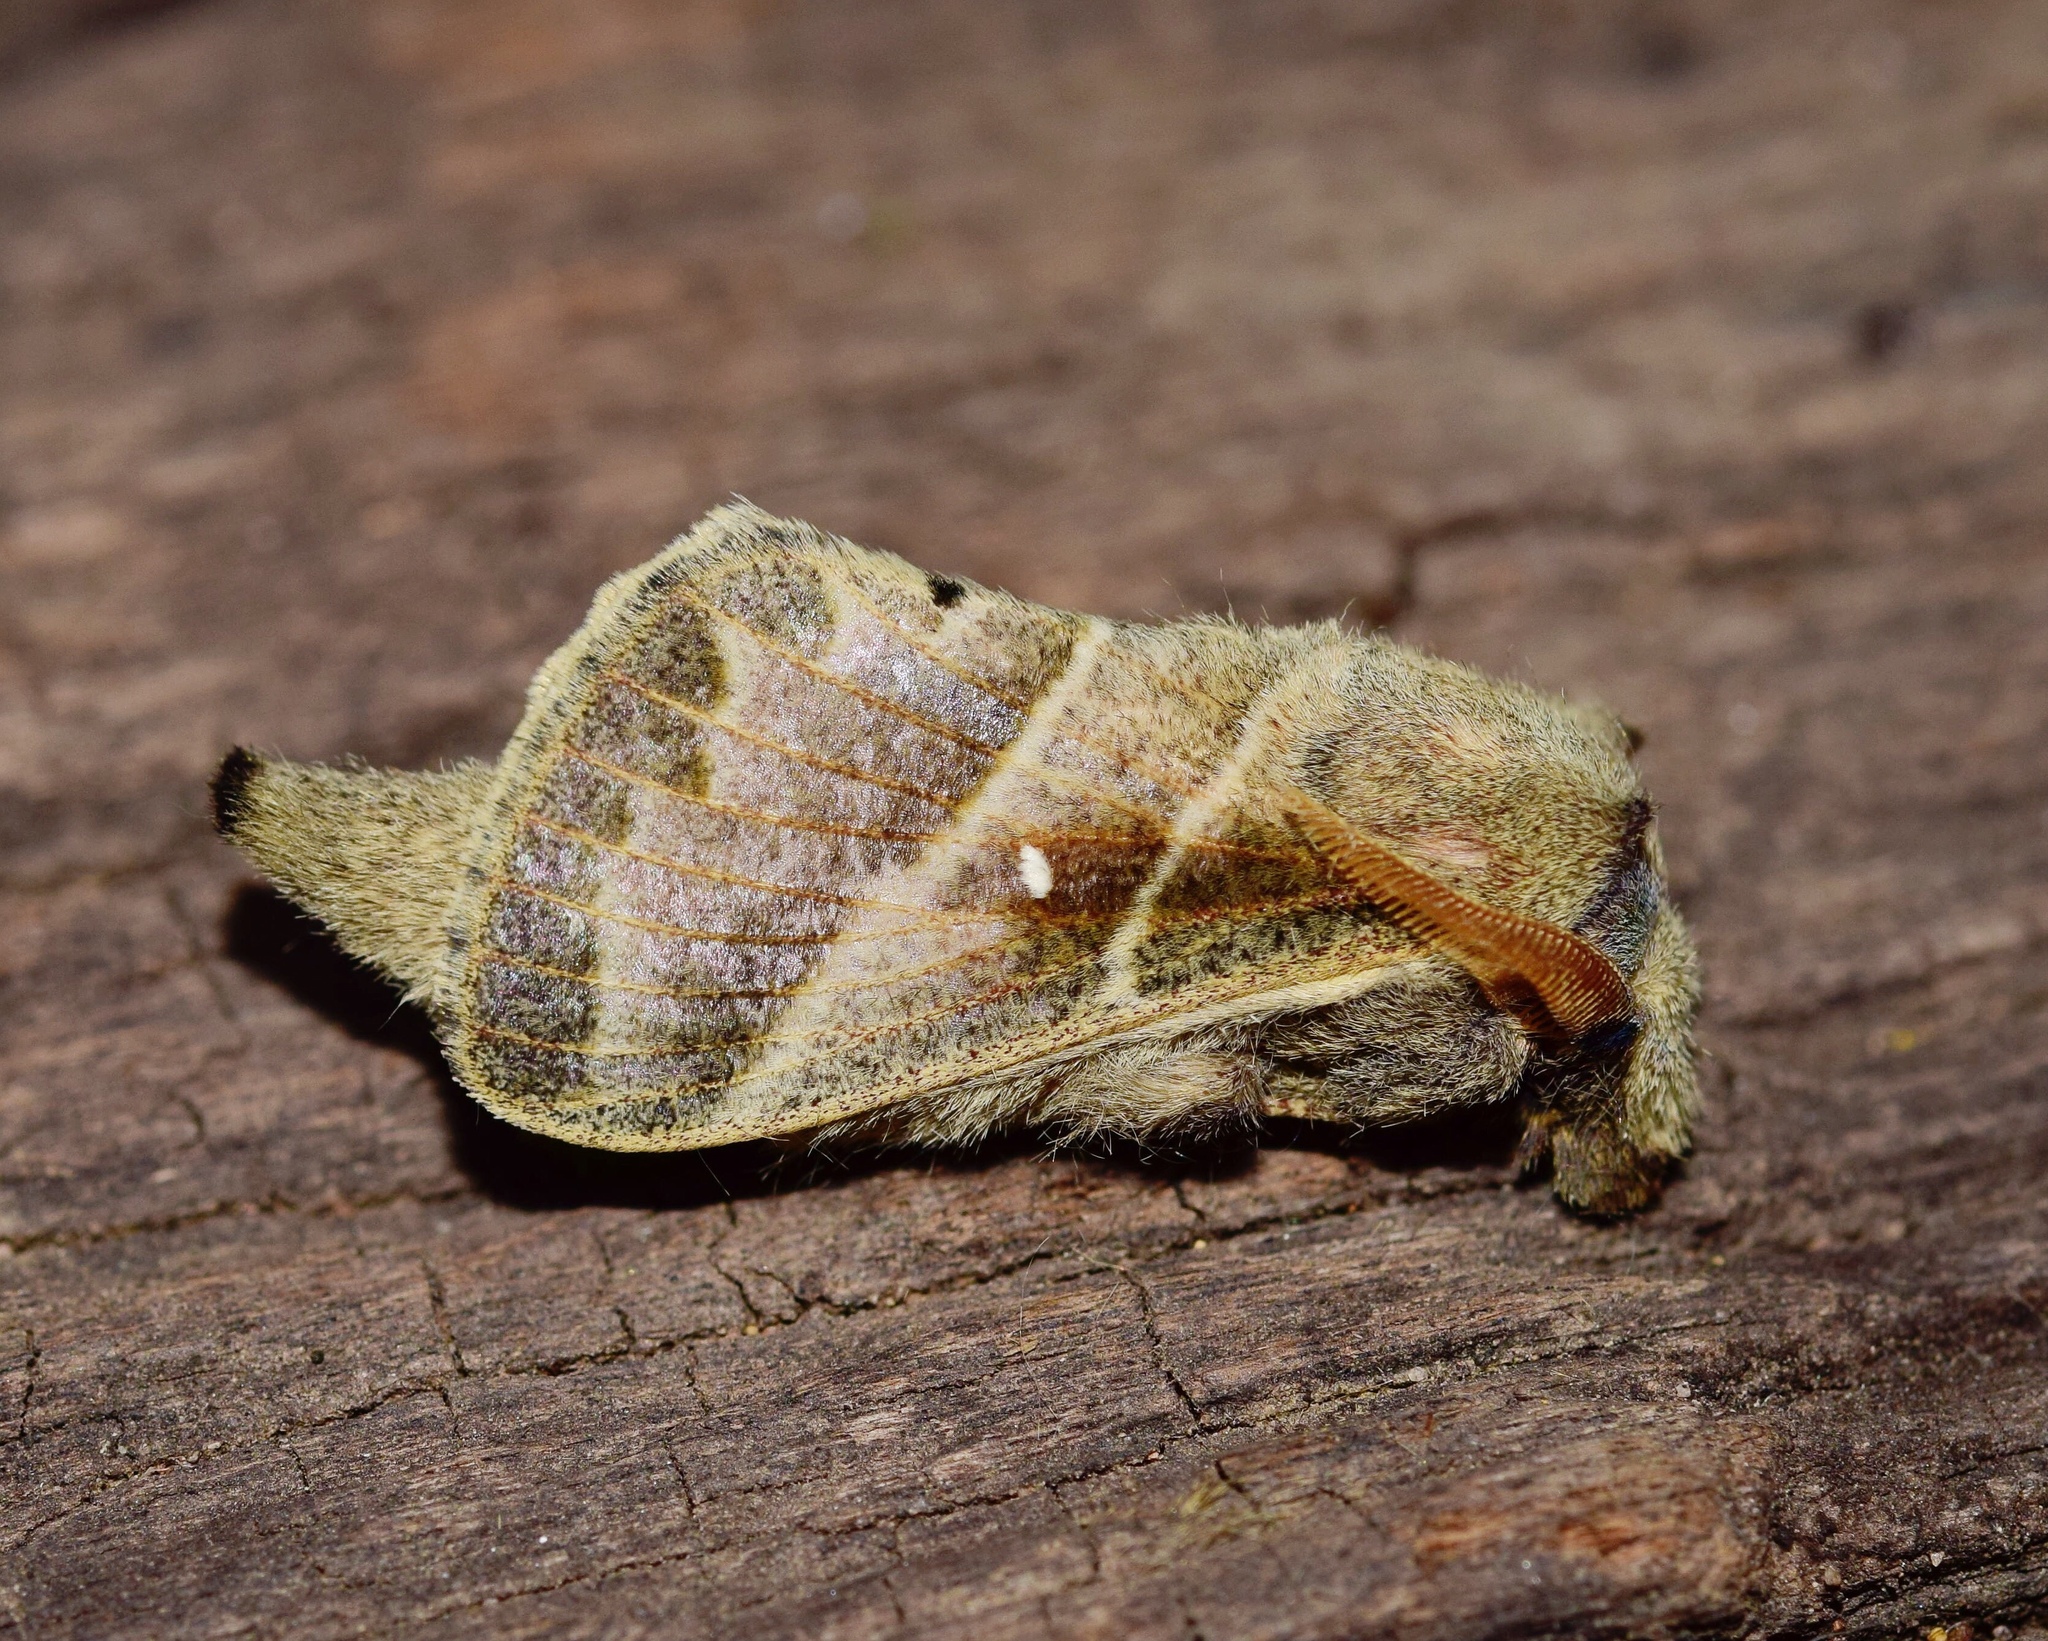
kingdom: Animalia
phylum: Arthropoda
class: Insecta
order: Lepidoptera
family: Lasiocampidae
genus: Bombycopsis
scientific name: Bombycopsis bipars
